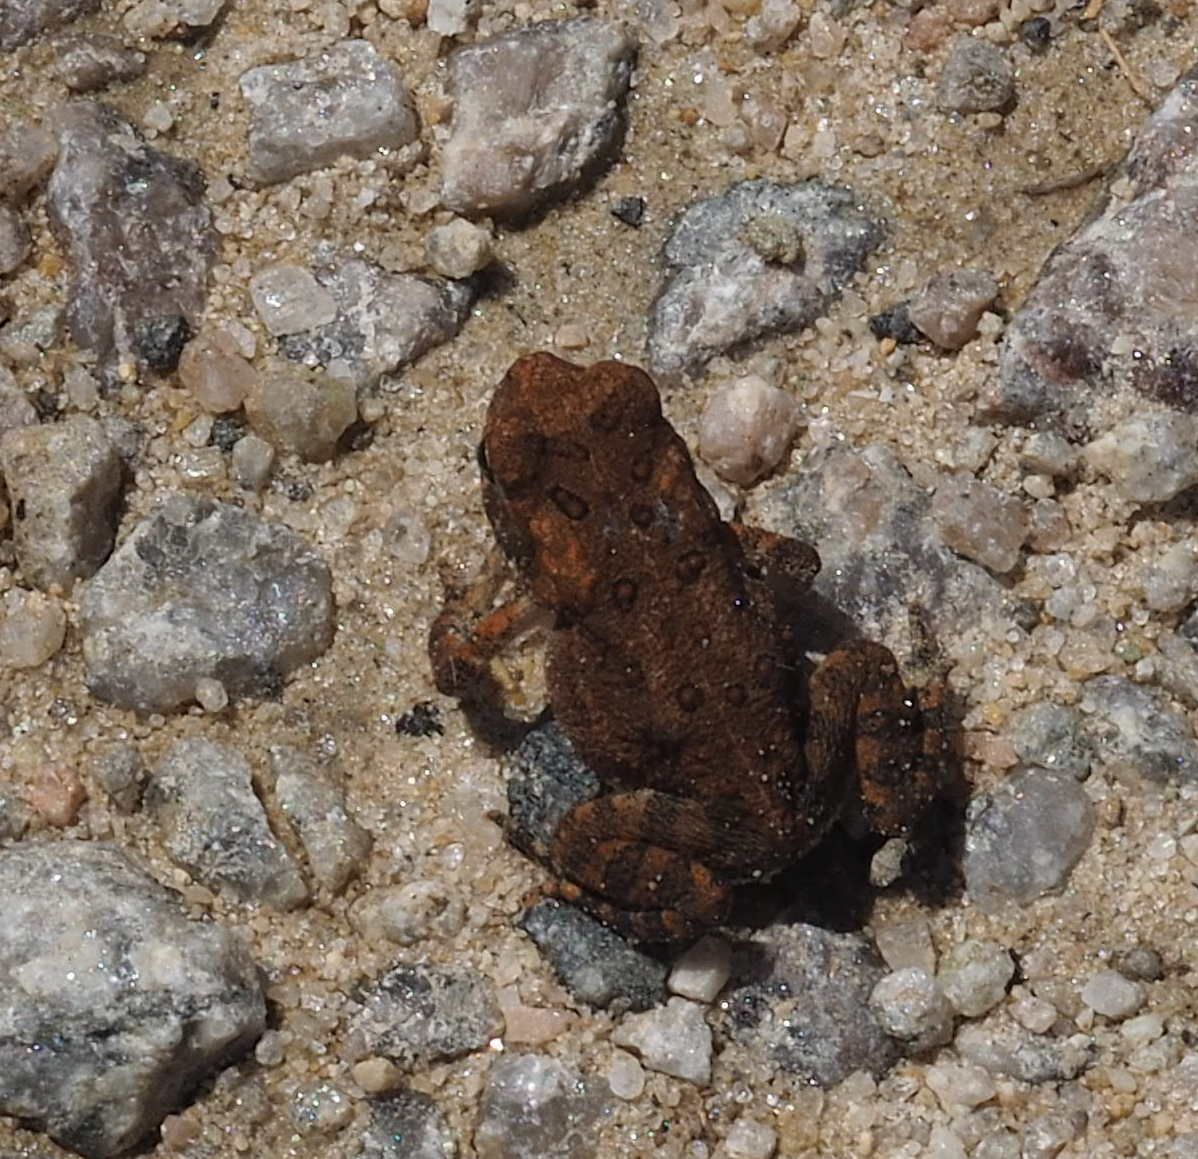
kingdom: Animalia
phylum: Chordata
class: Amphibia
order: Anura
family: Bufonidae
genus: Anaxyrus
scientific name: Anaxyrus americanus
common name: American toad
